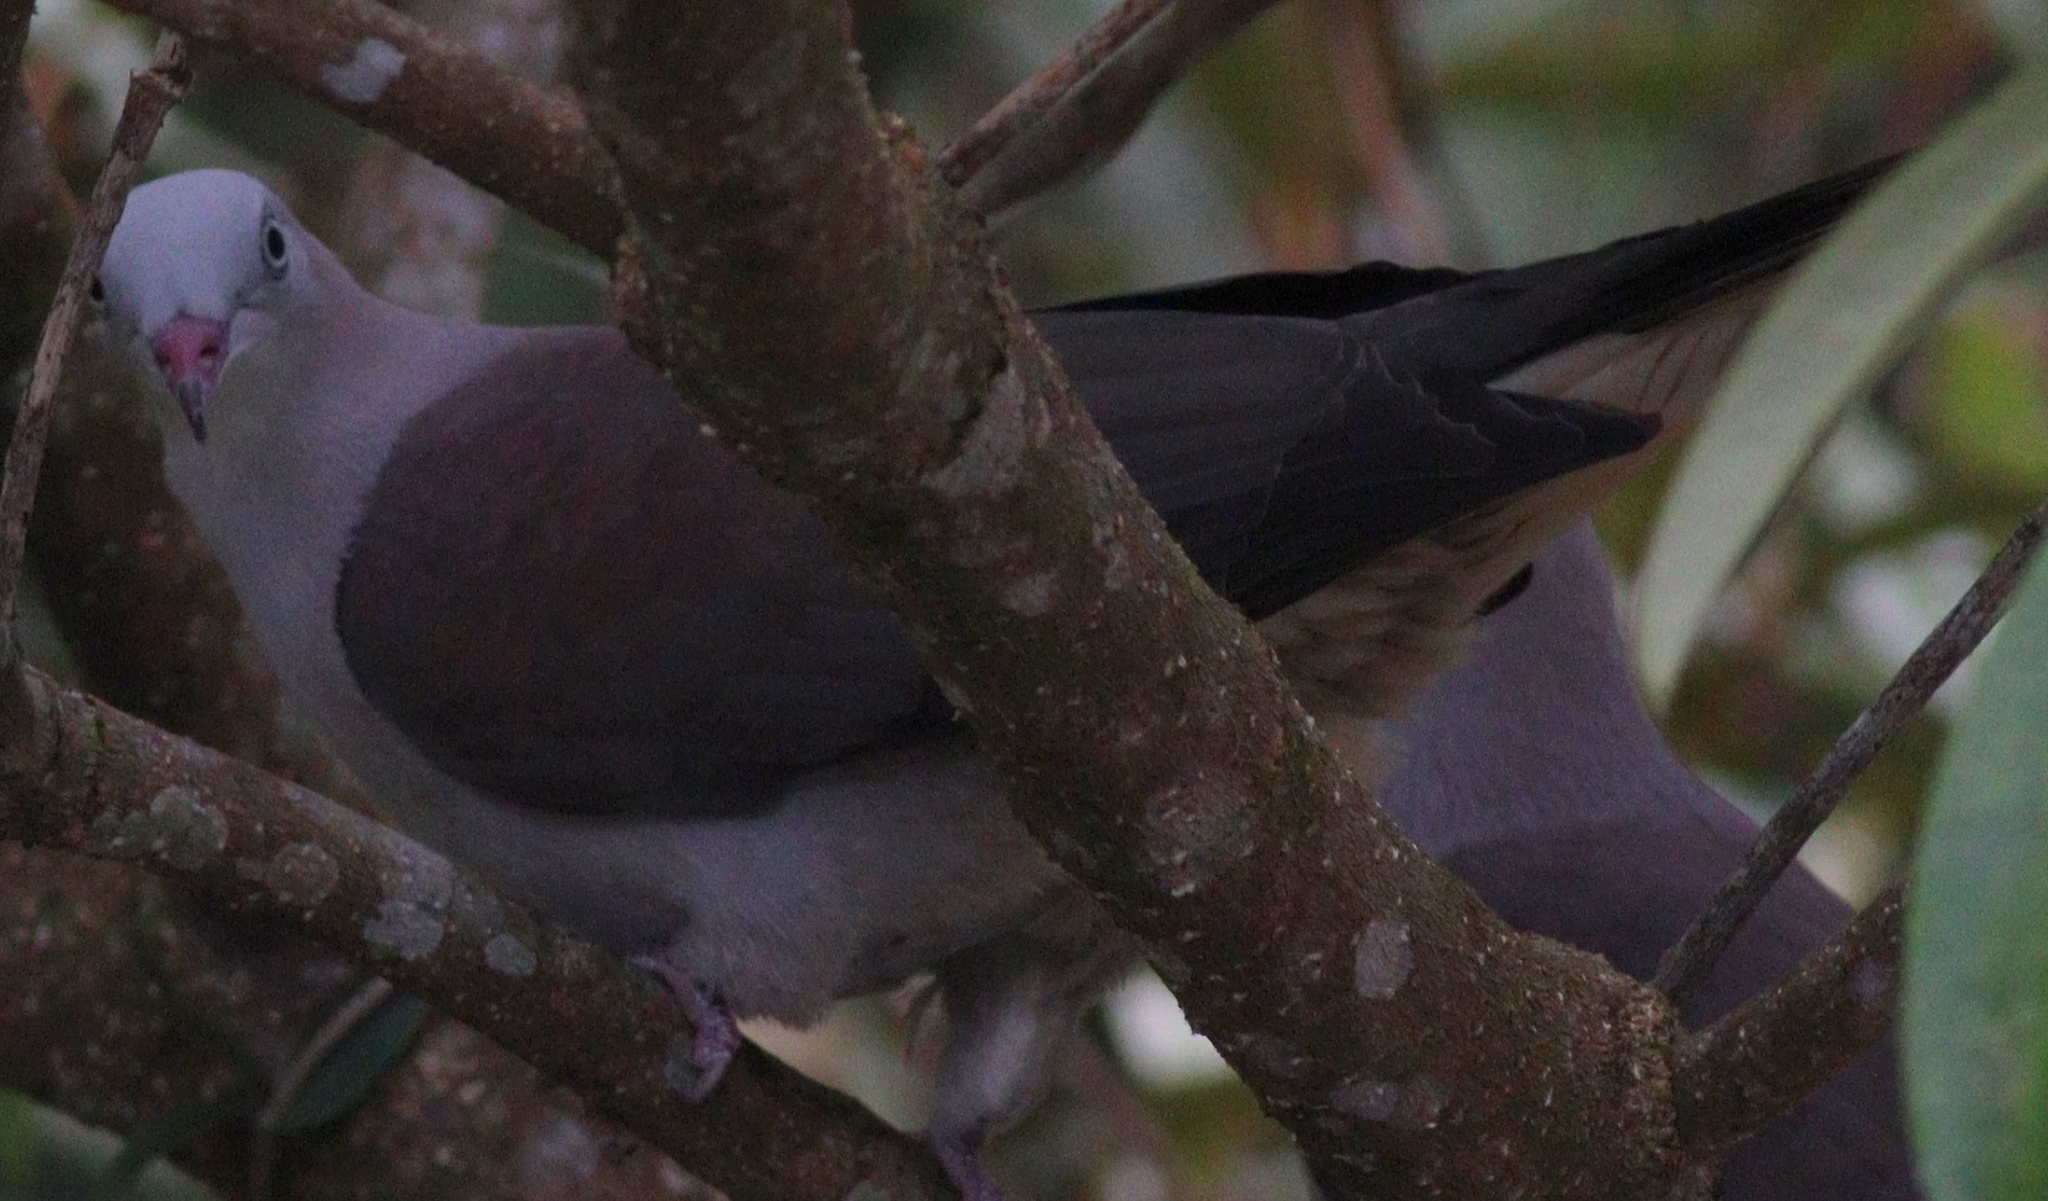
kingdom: Animalia
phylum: Chordata
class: Aves
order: Columbiformes
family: Columbidae
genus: Ducula
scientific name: Ducula badia
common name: Mountain imperial pigeon
